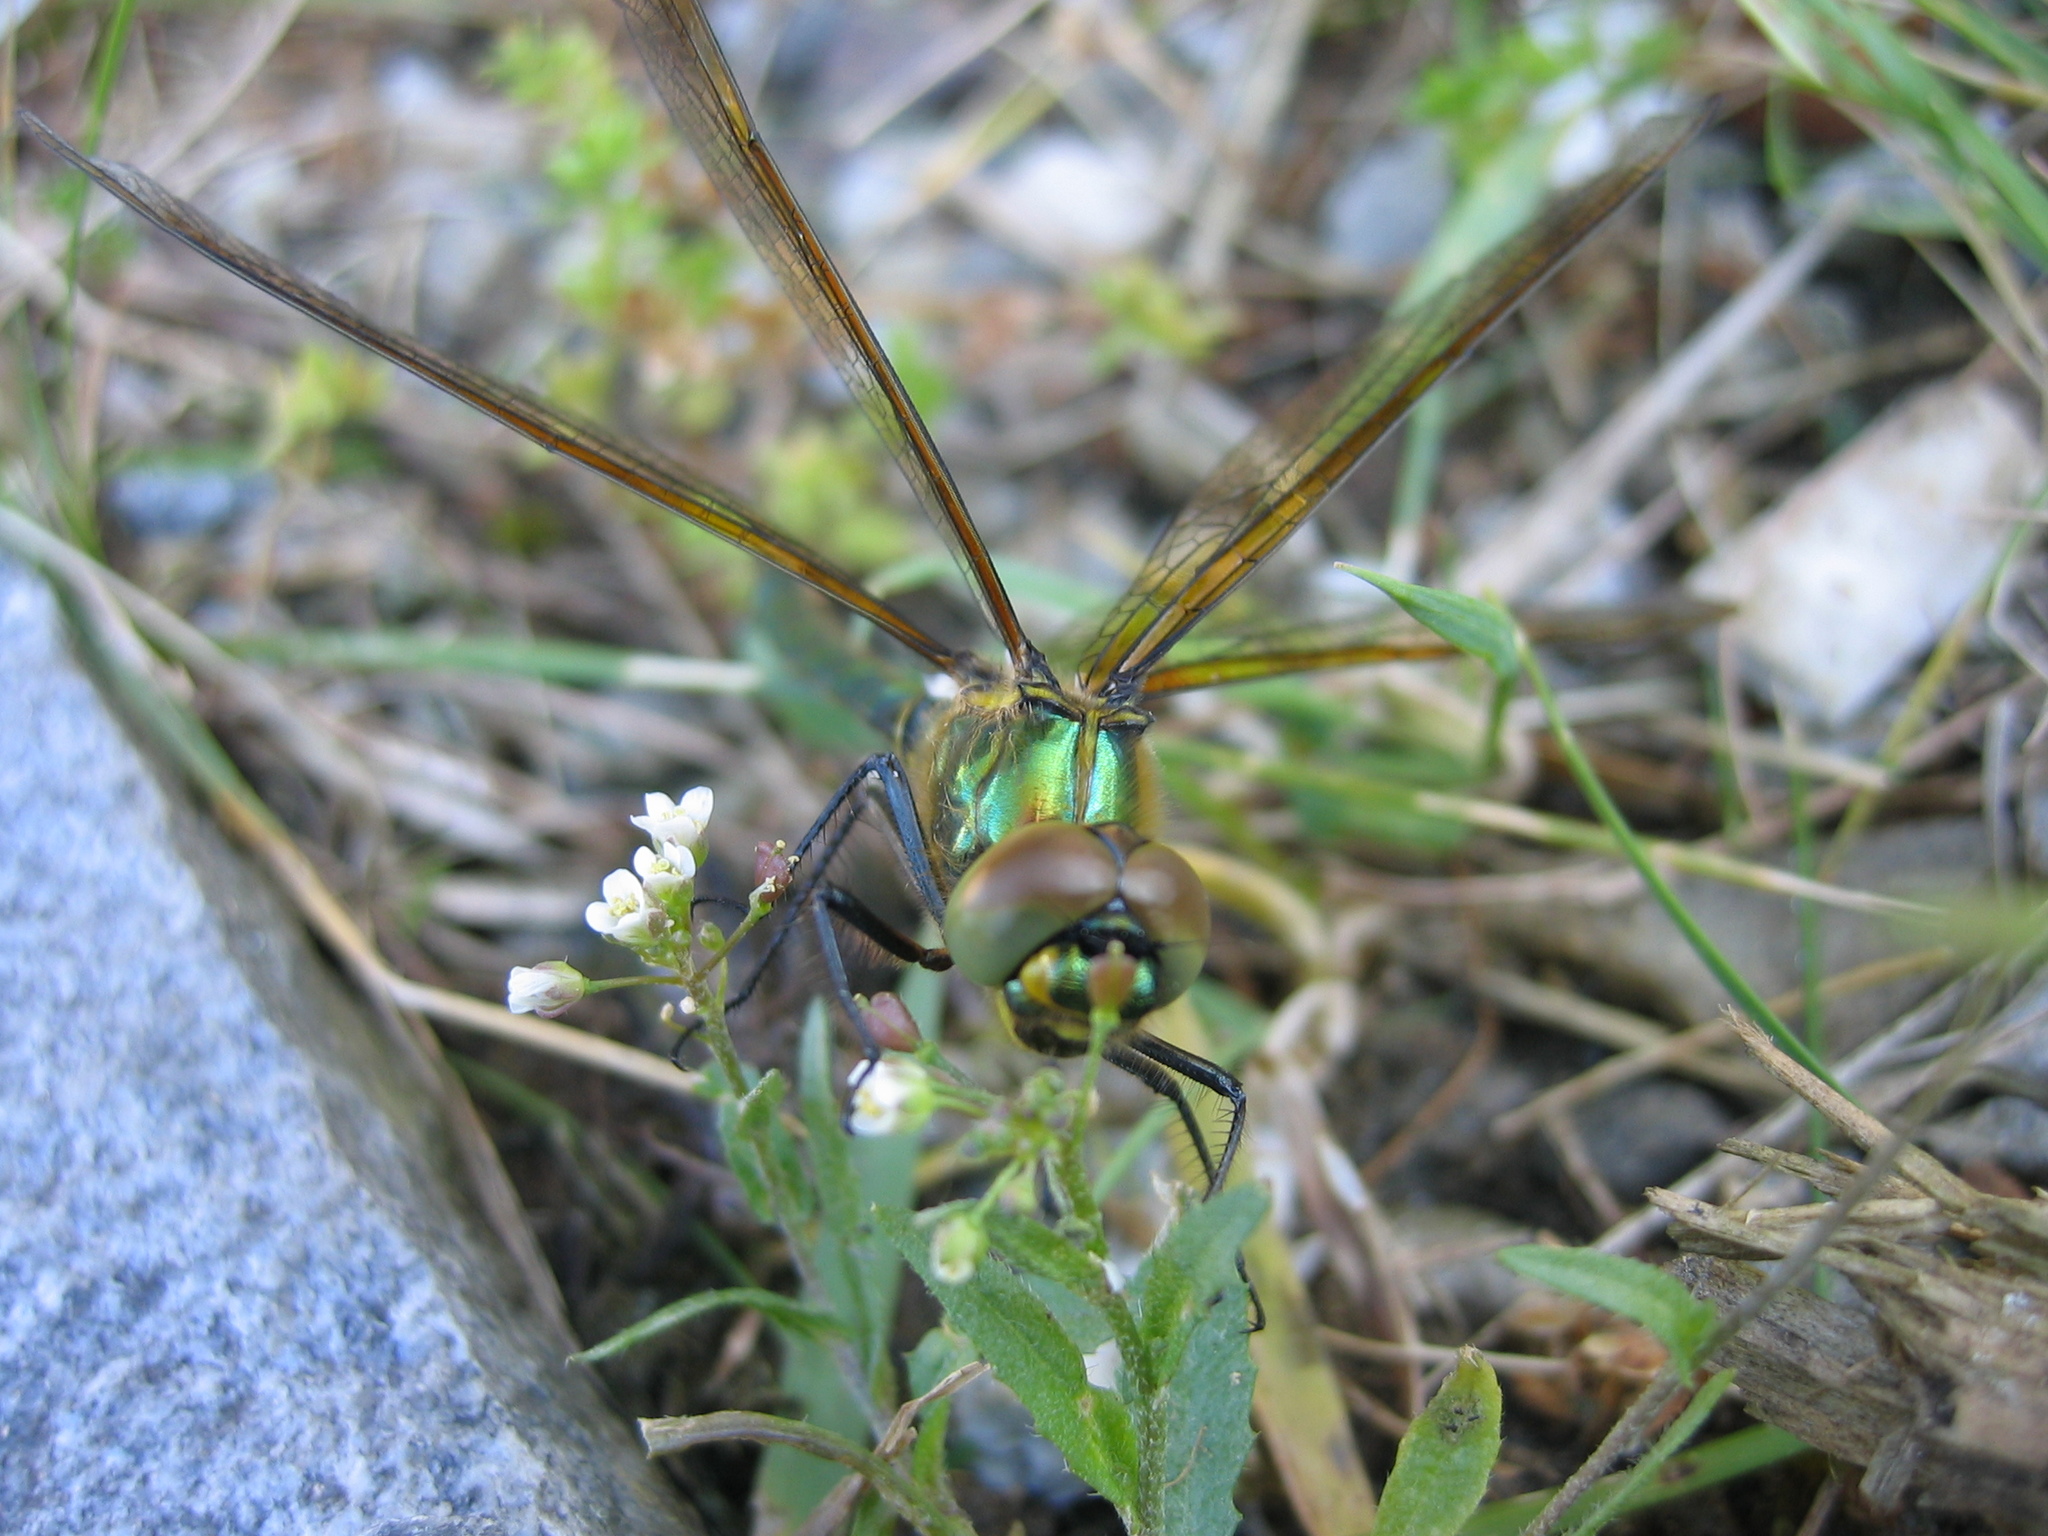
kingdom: Animalia
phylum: Arthropoda
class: Insecta
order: Odonata
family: Corduliidae
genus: Somatochlora
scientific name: Somatochlora metallica
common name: Brilliant emerald
